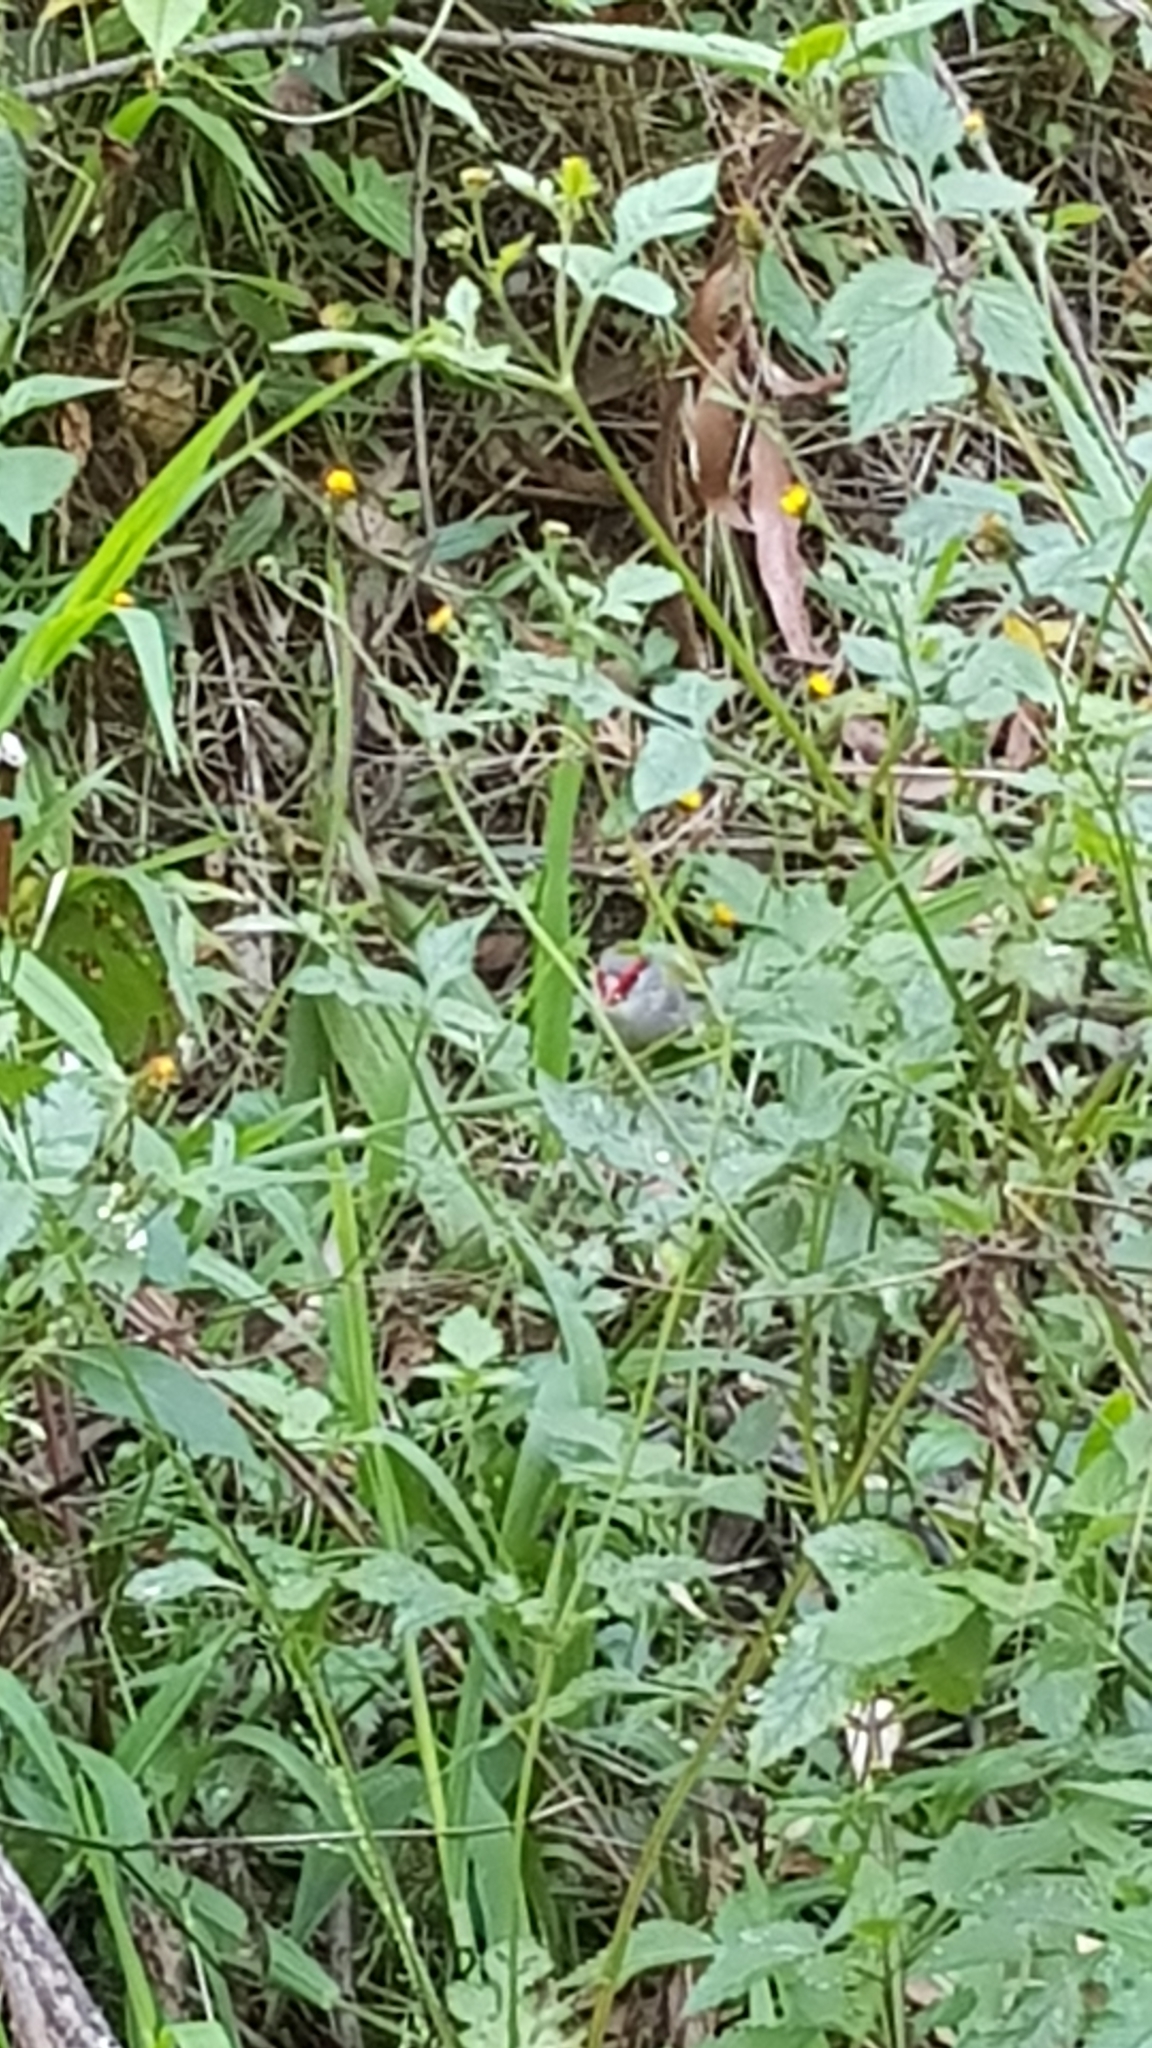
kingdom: Animalia
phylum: Chordata
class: Aves
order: Passeriformes
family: Estrildidae
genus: Neochmia
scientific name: Neochmia temporalis
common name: Red-browed finch
